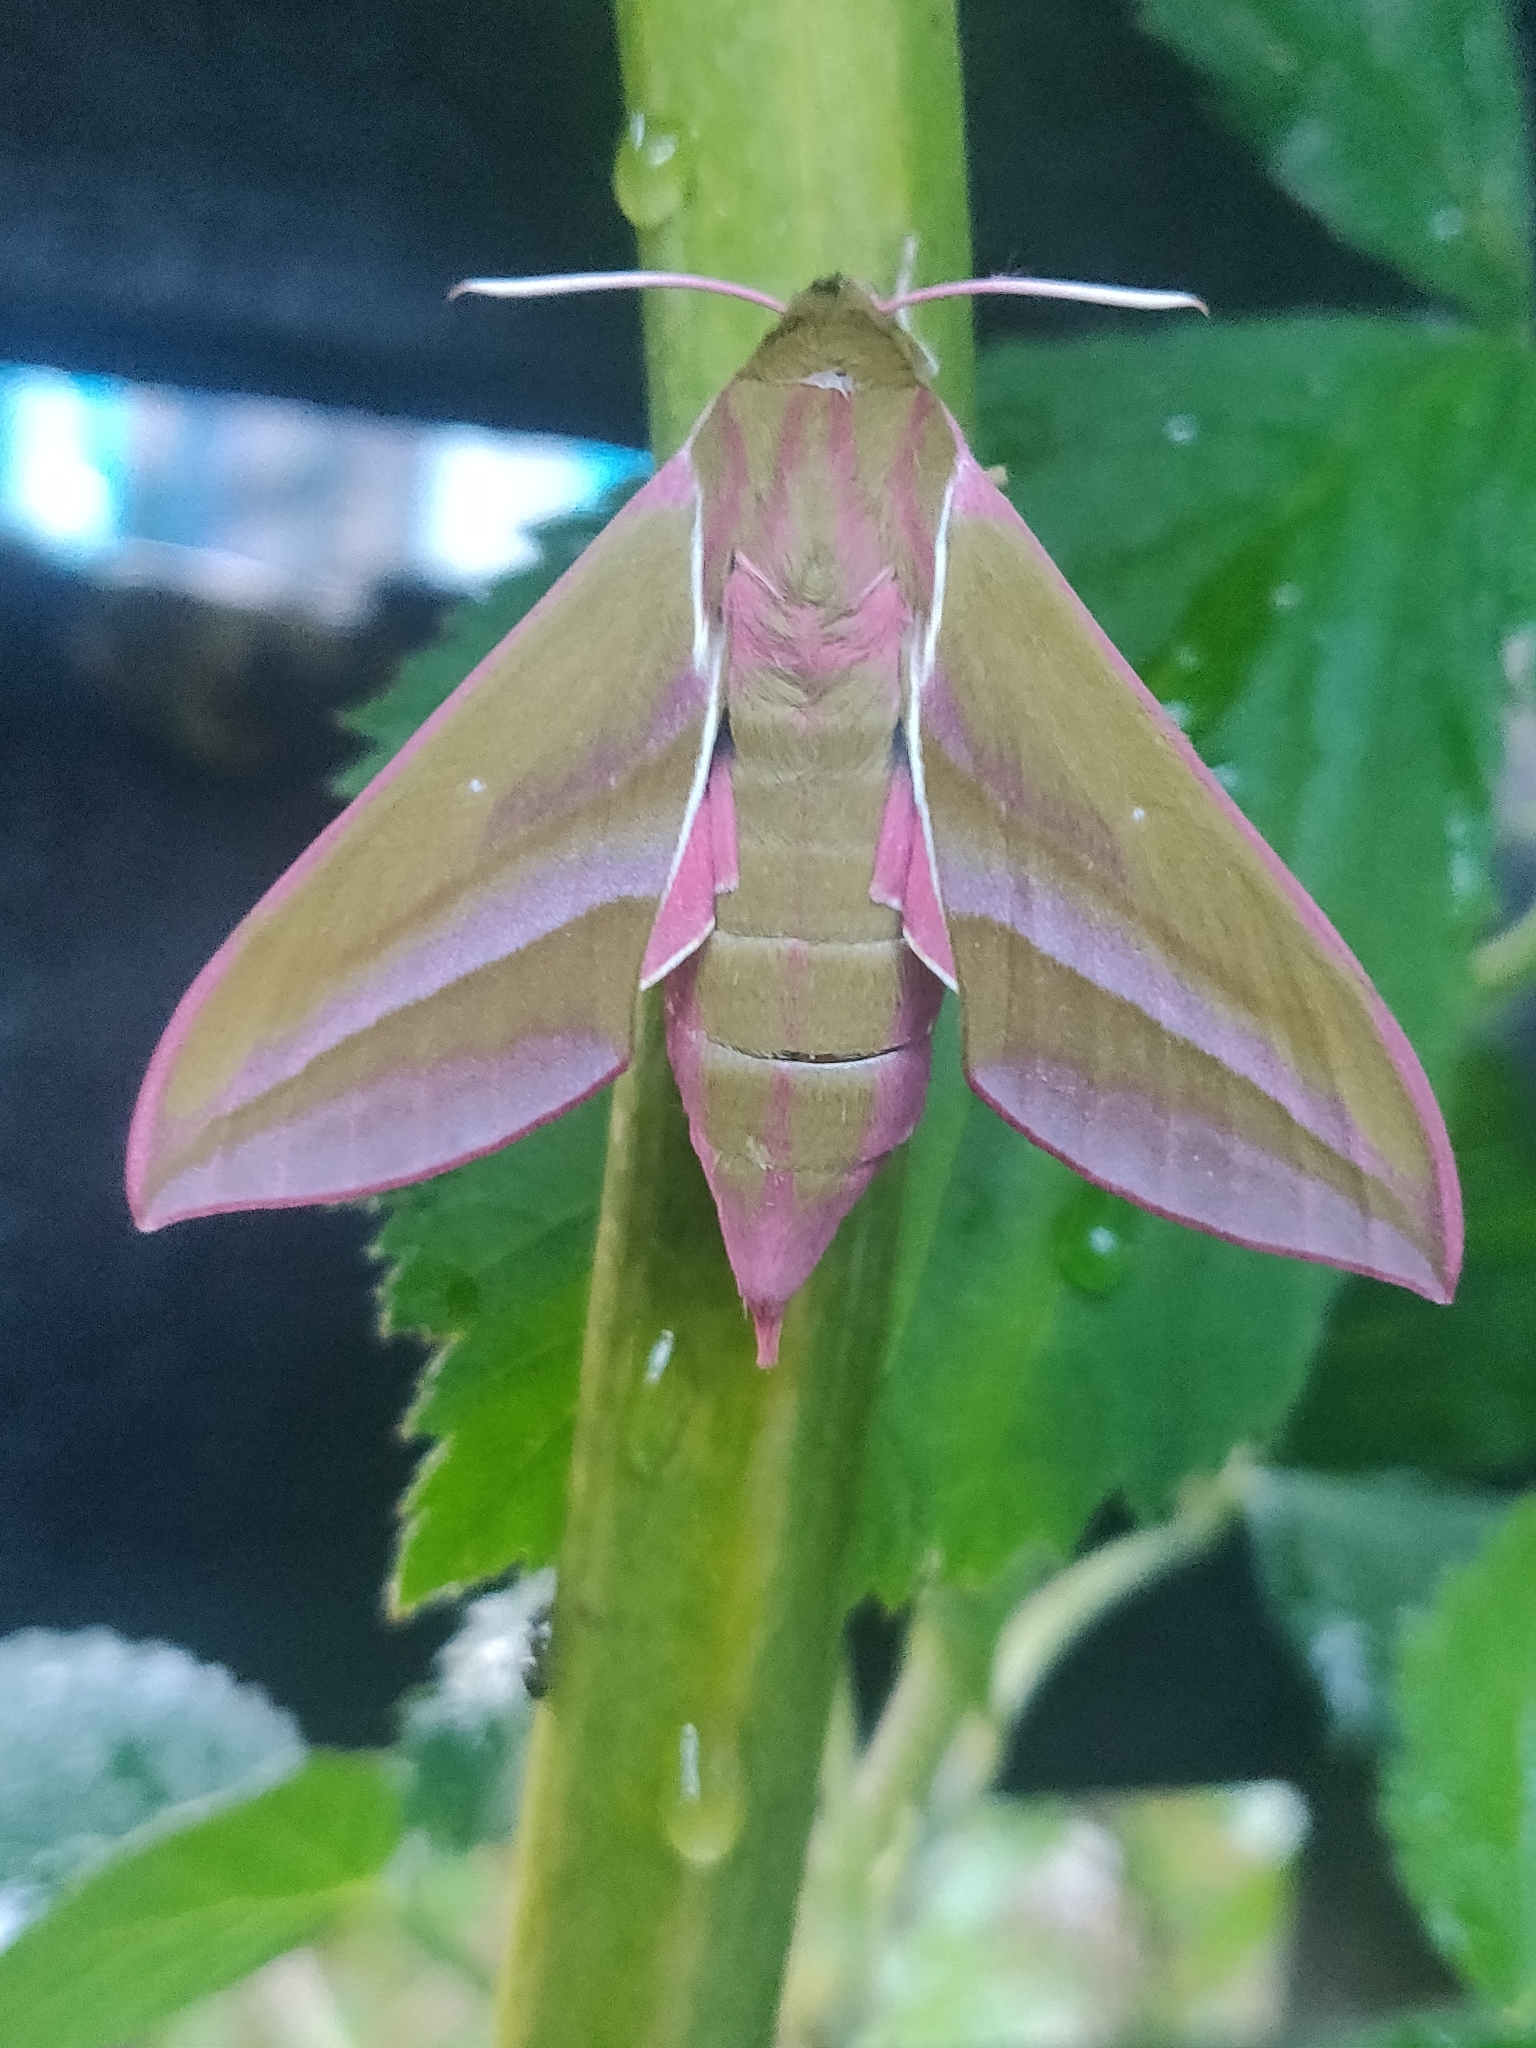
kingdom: Animalia
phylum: Arthropoda
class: Insecta
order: Lepidoptera
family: Sphingidae
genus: Deilephila
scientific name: Deilephila elpenor
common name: Elephant hawk-moth
